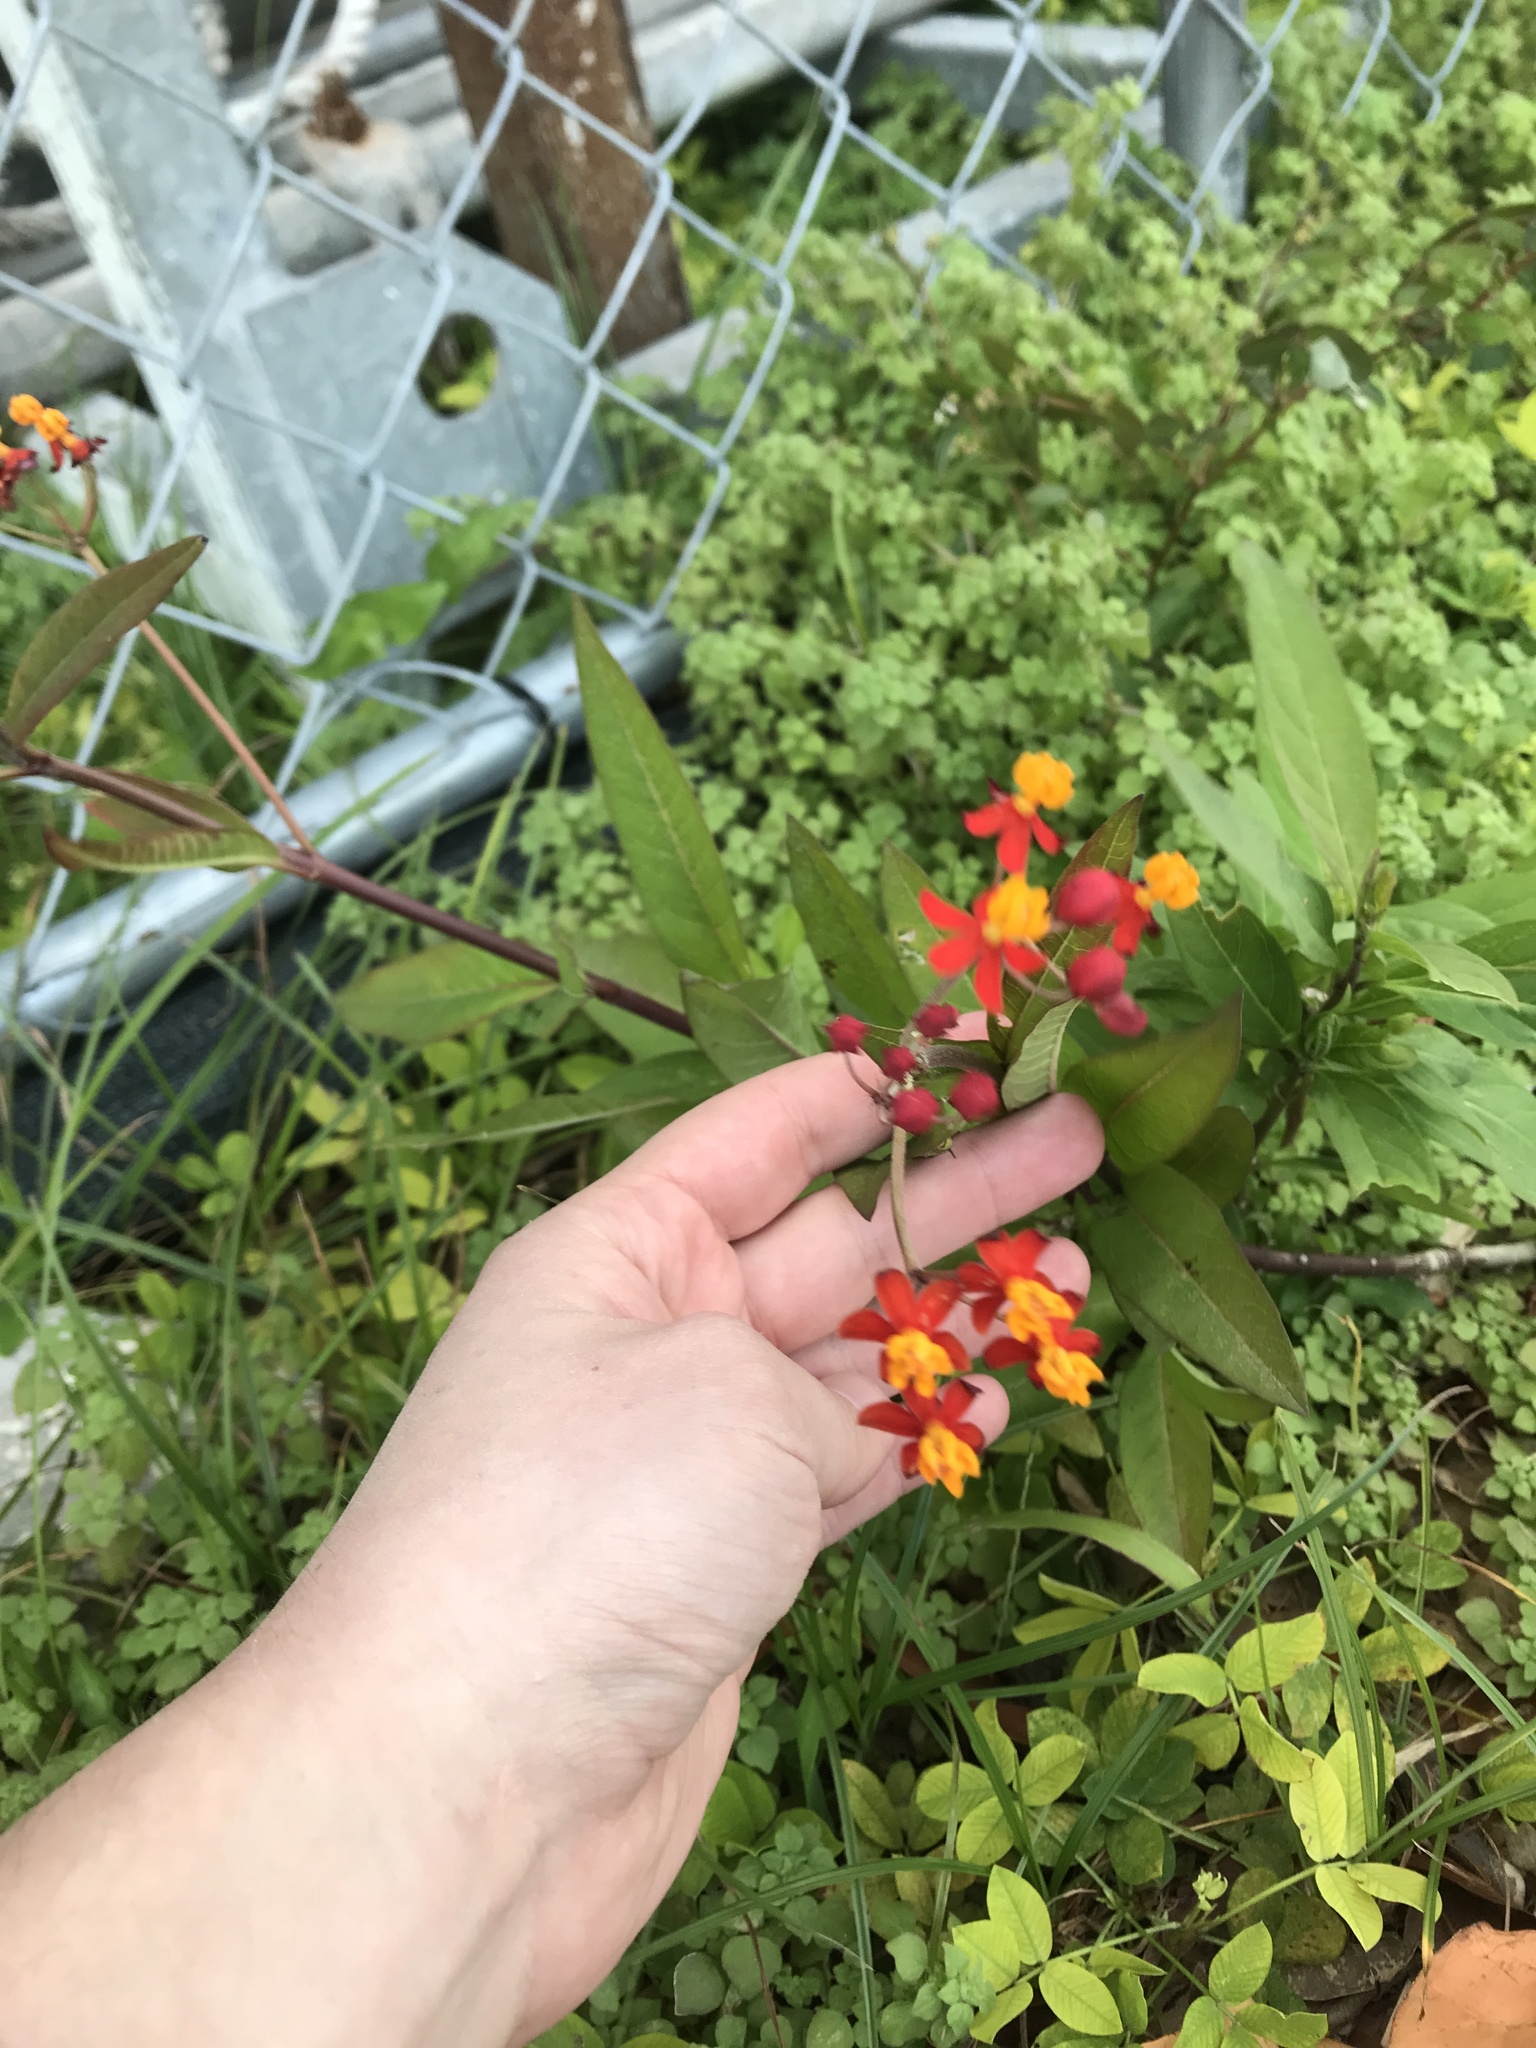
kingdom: Plantae
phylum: Tracheophyta
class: Magnoliopsida
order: Gentianales
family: Apocynaceae
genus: Asclepias
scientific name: Asclepias curassavica
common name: Bloodflower
